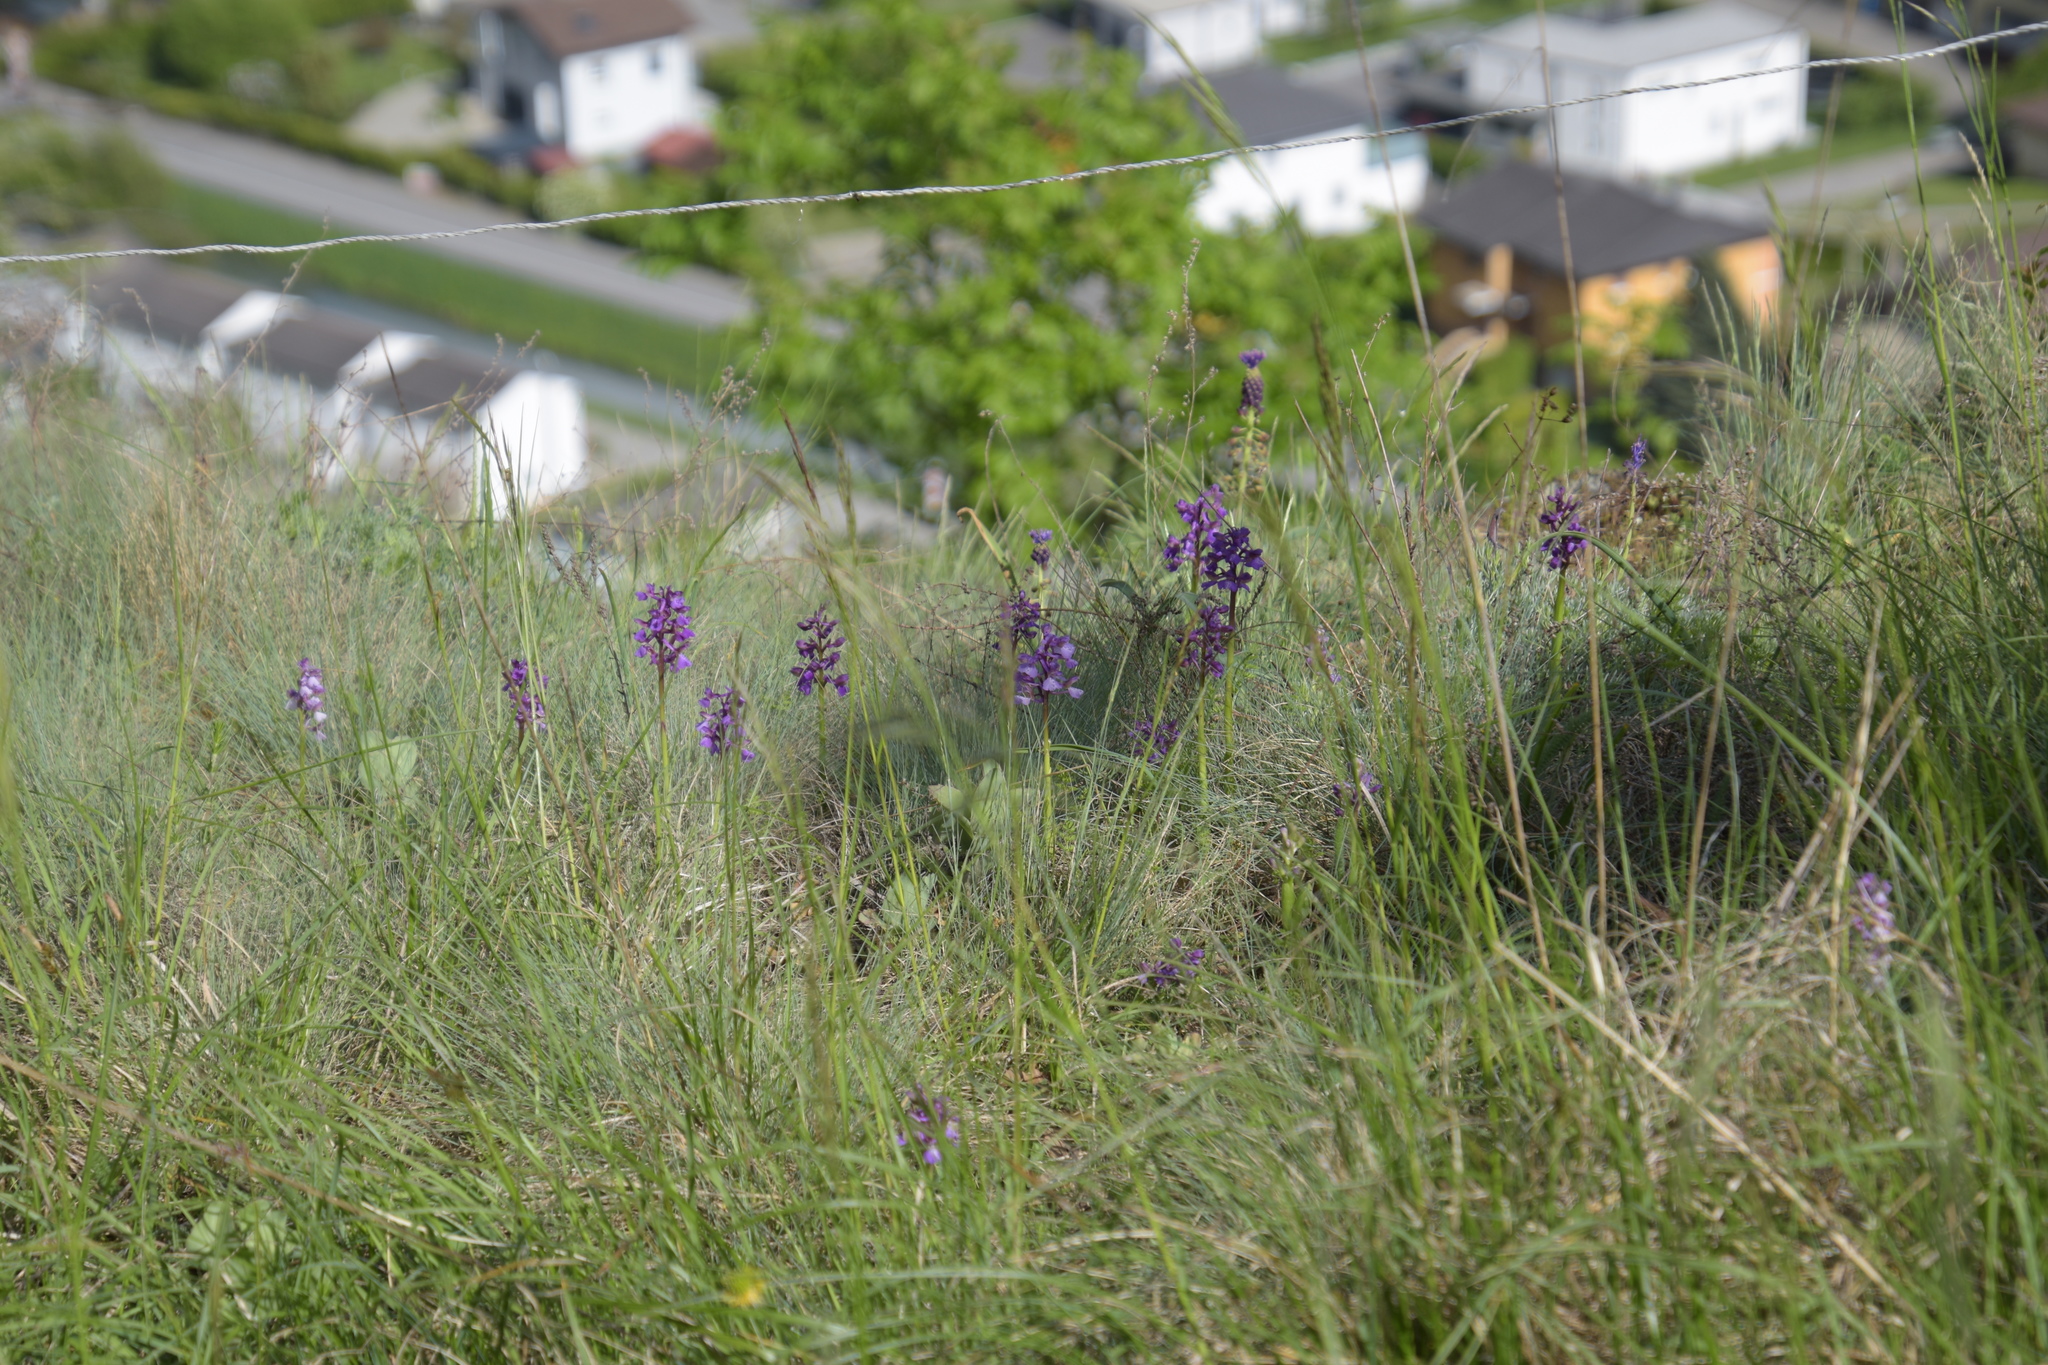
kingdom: Plantae
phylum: Tracheophyta
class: Liliopsida
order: Asparagales
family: Orchidaceae
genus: Anacamptis
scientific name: Anacamptis morio
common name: Green-winged orchid
